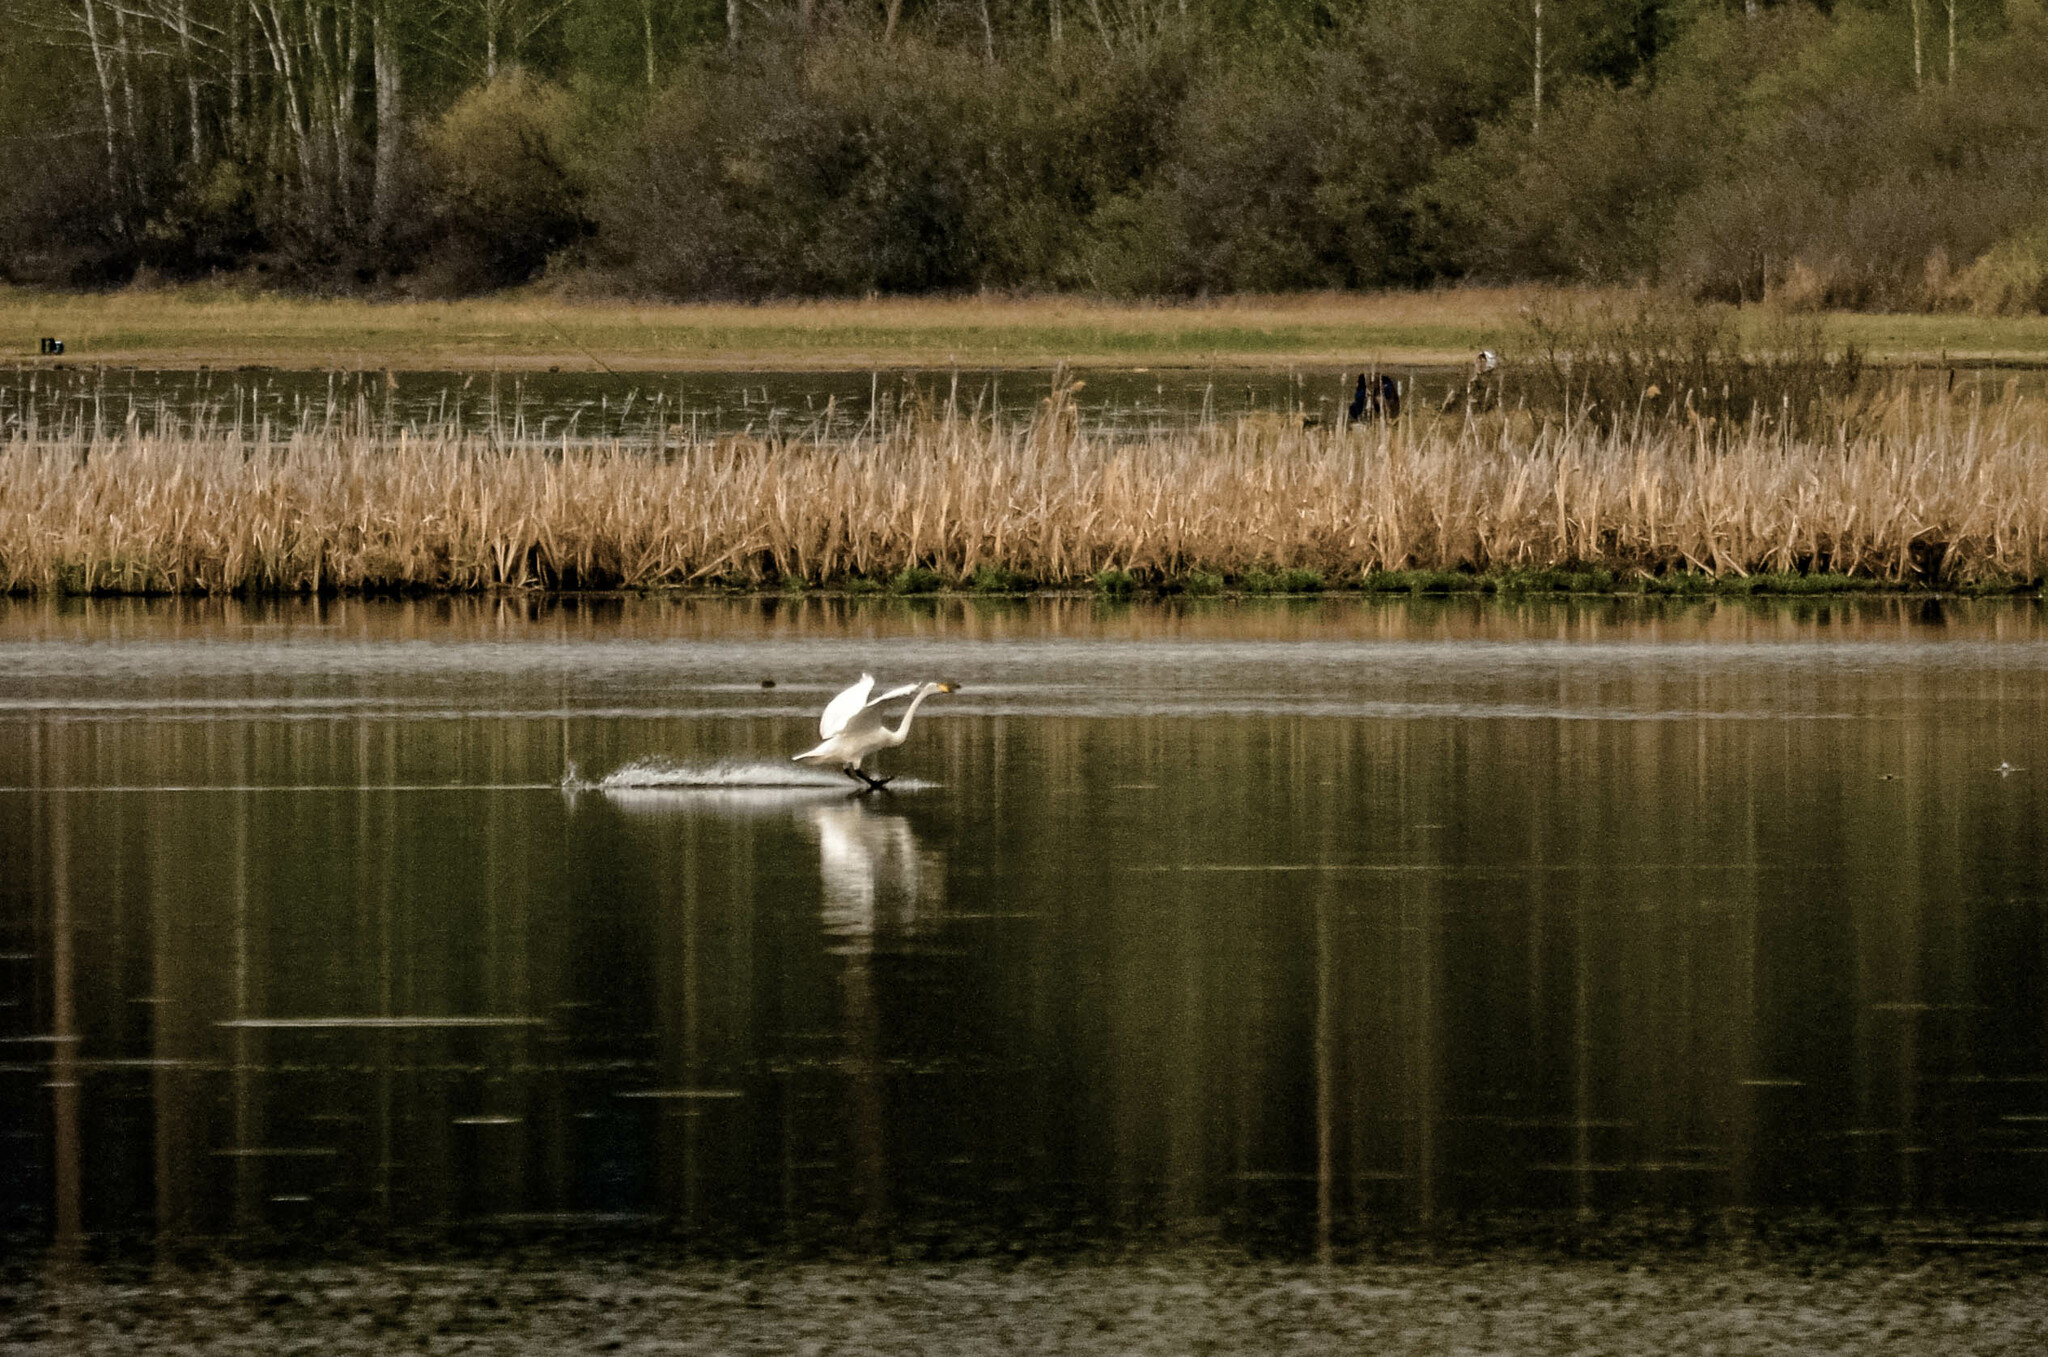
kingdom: Animalia
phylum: Chordata
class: Aves
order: Anseriformes
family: Anatidae
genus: Cygnus
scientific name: Cygnus cygnus
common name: Whooper swan
